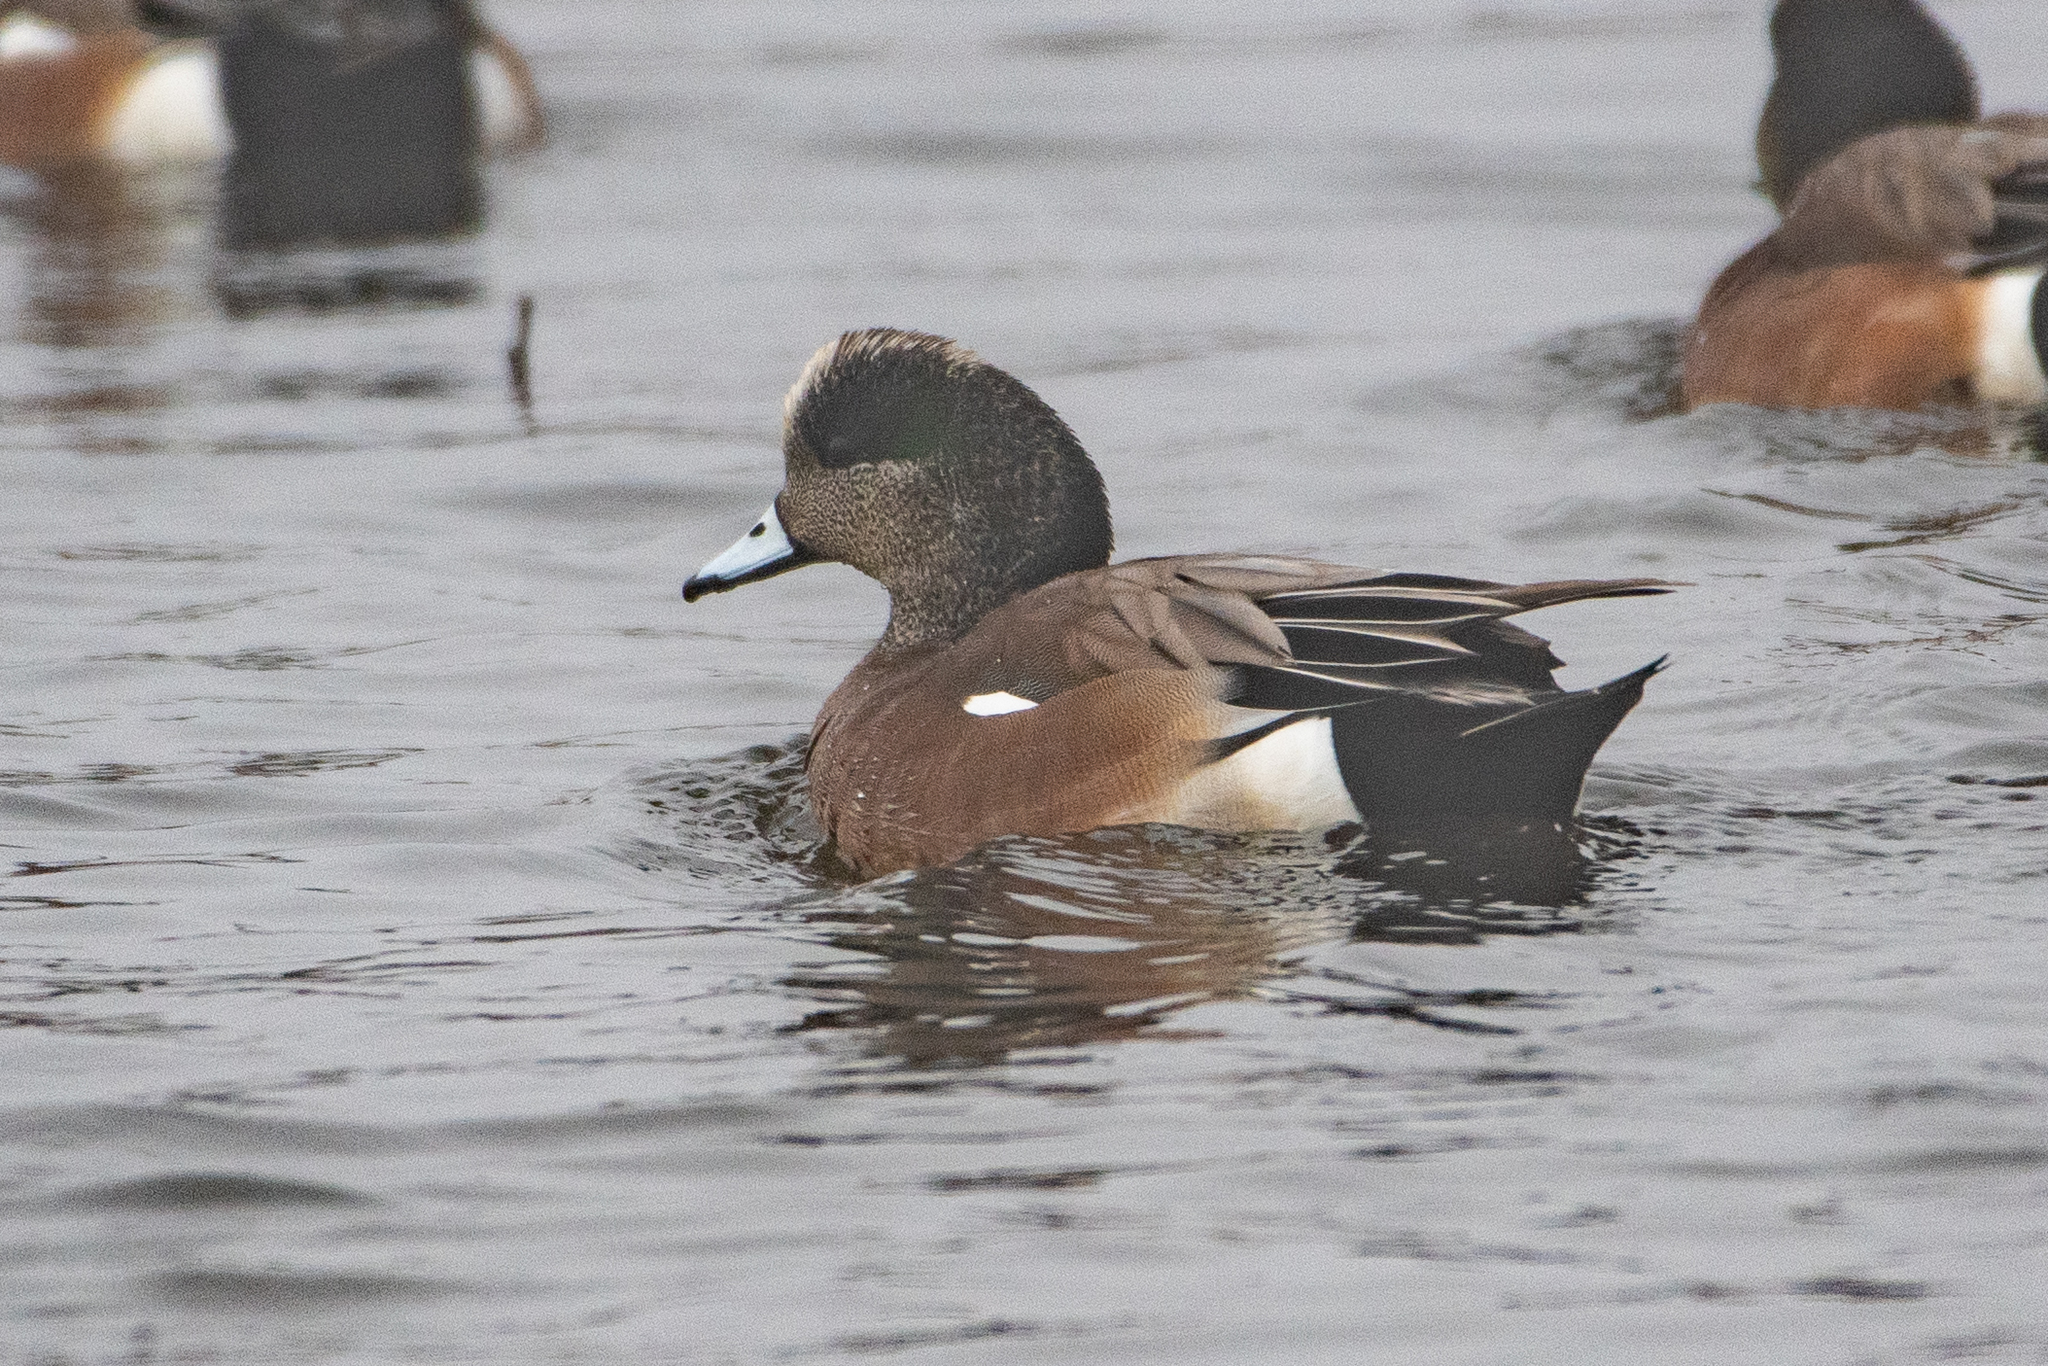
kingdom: Animalia
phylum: Chordata
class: Aves
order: Anseriformes
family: Anatidae
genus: Mareca
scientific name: Mareca americana
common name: American wigeon
